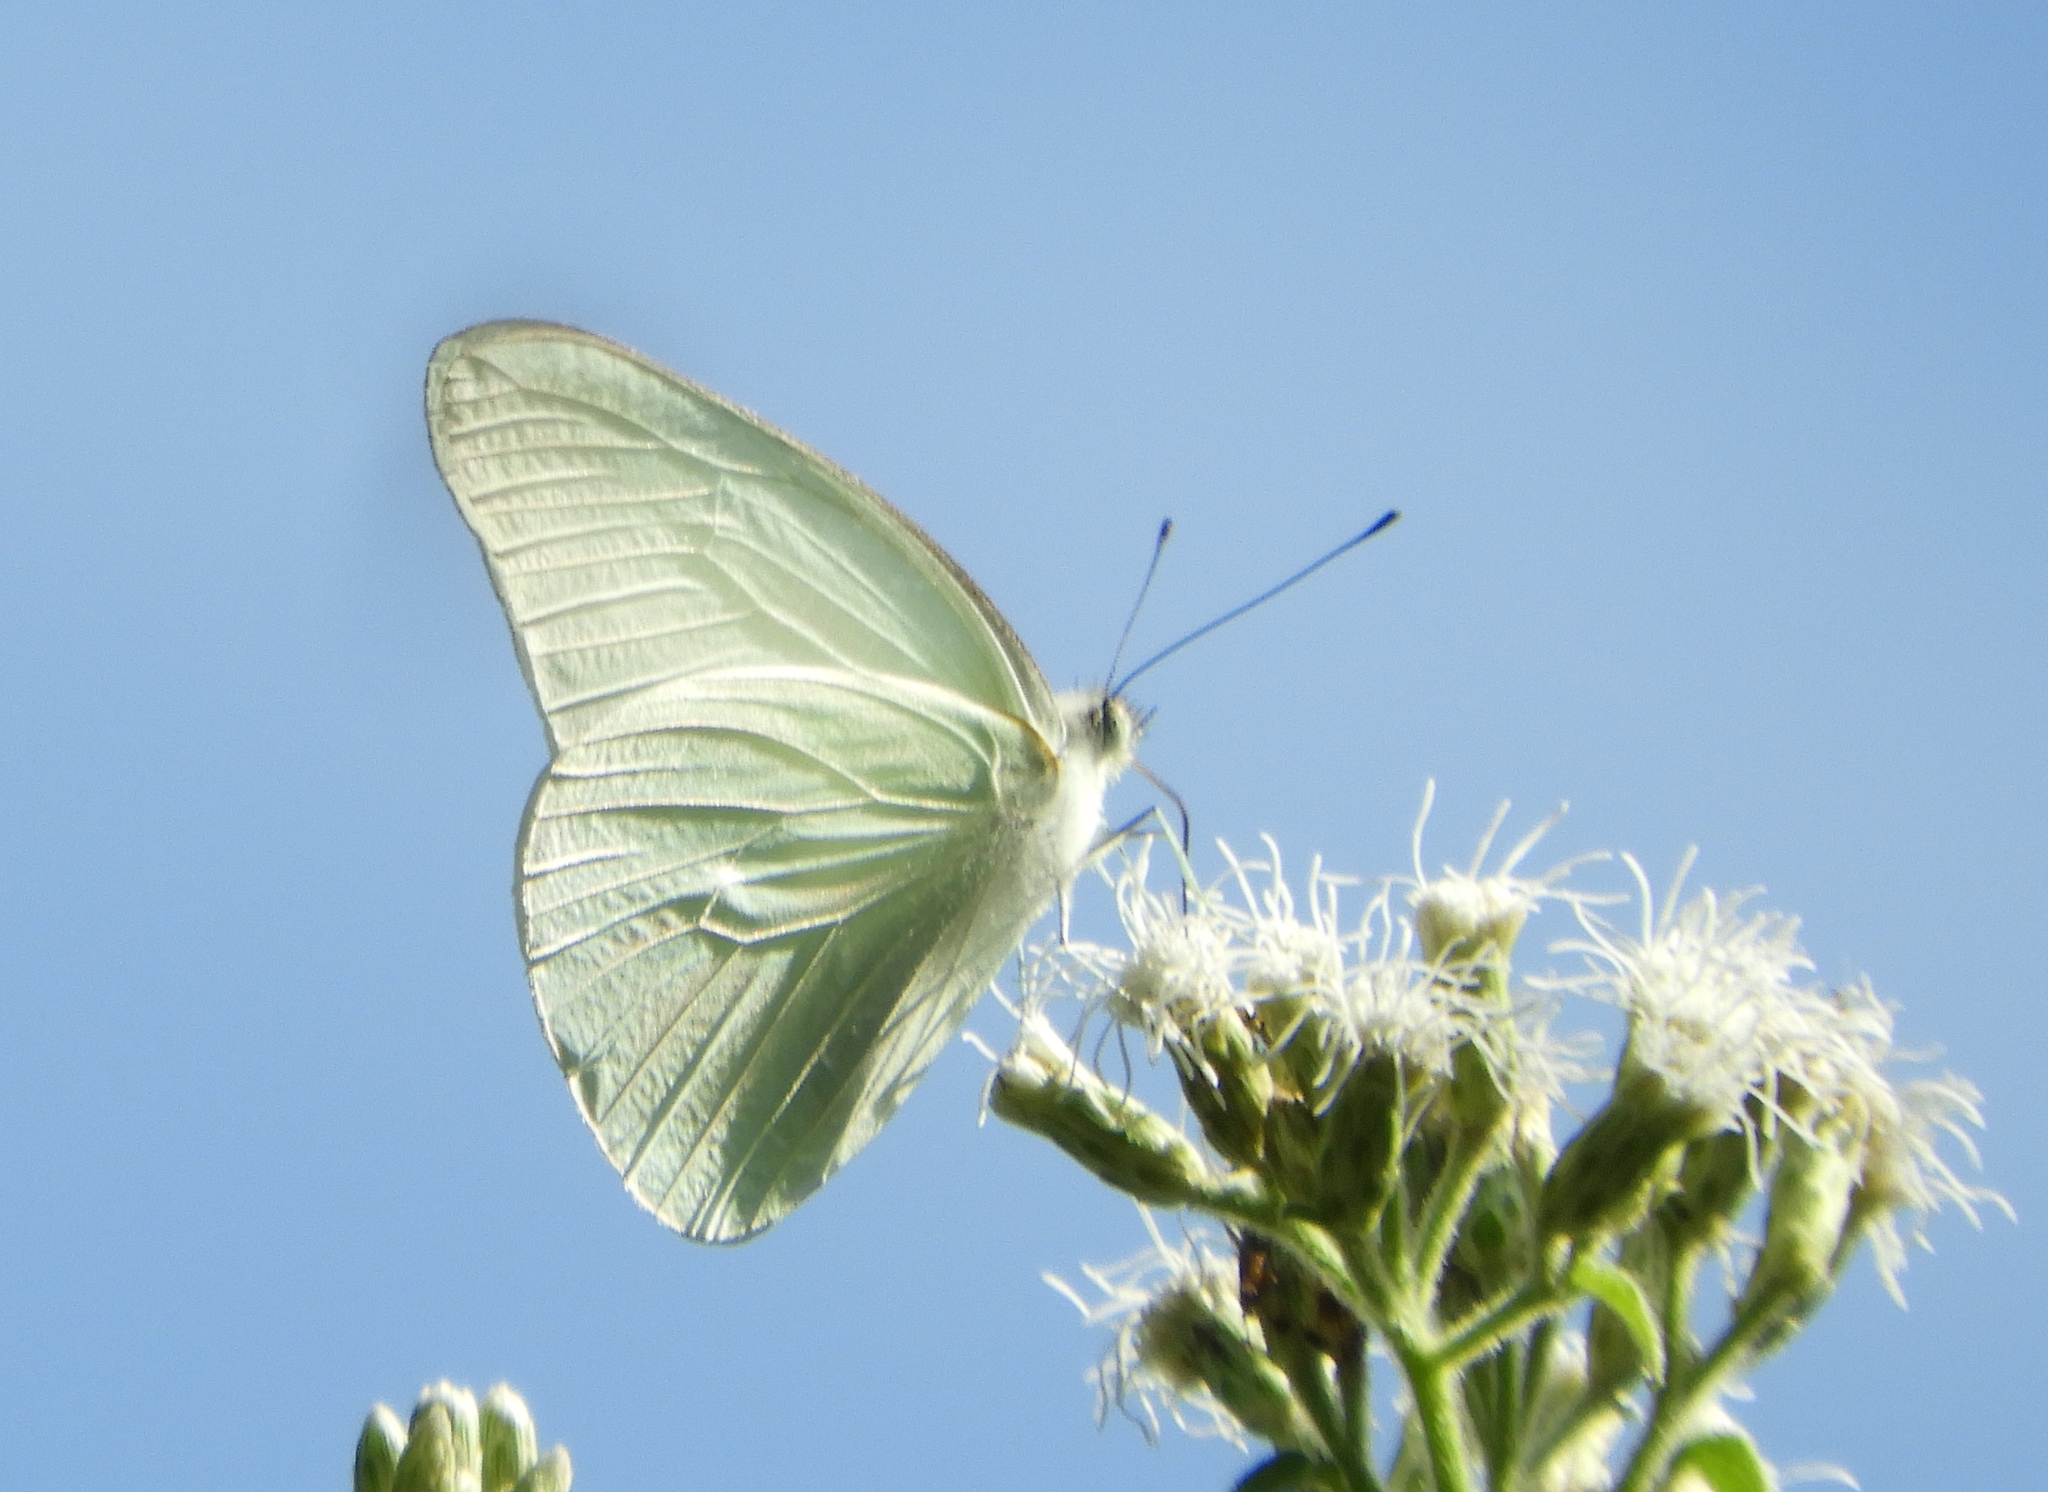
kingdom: Animalia
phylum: Arthropoda
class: Insecta
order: Lepidoptera
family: Pieridae
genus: Glutophrissa
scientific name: Glutophrissa drusilla
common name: Florida white
